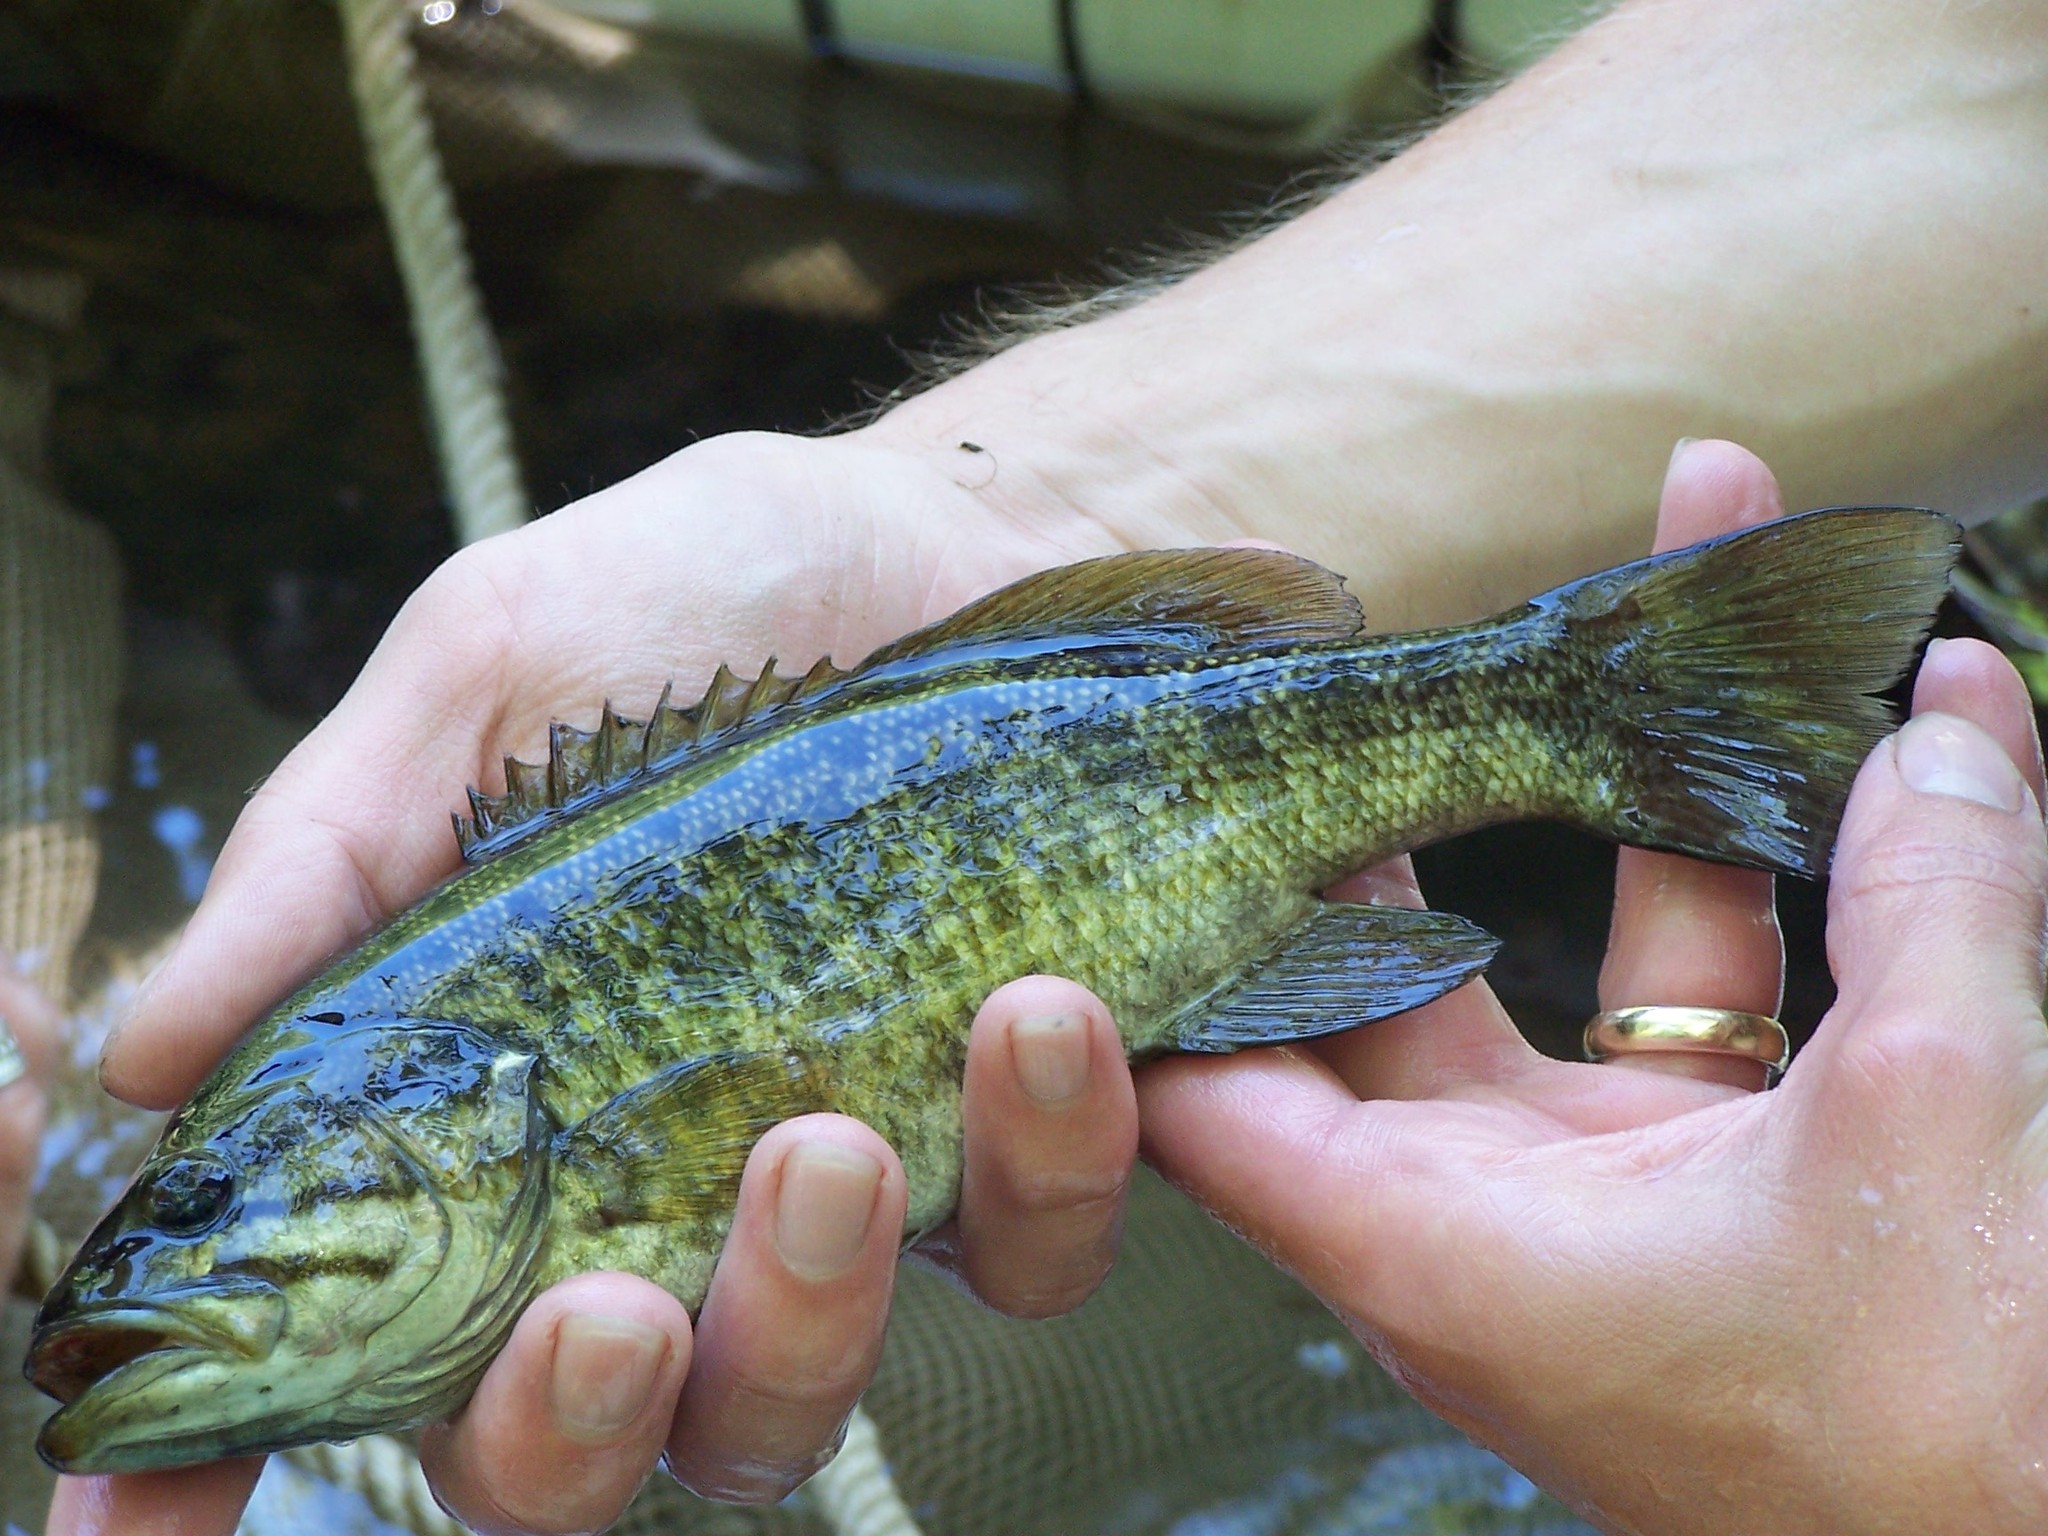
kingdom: Animalia
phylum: Chordata
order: Perciformes
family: Centrarchidae
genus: Micropterus
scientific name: Micropterus dolomieu
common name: Smallmouth bass
